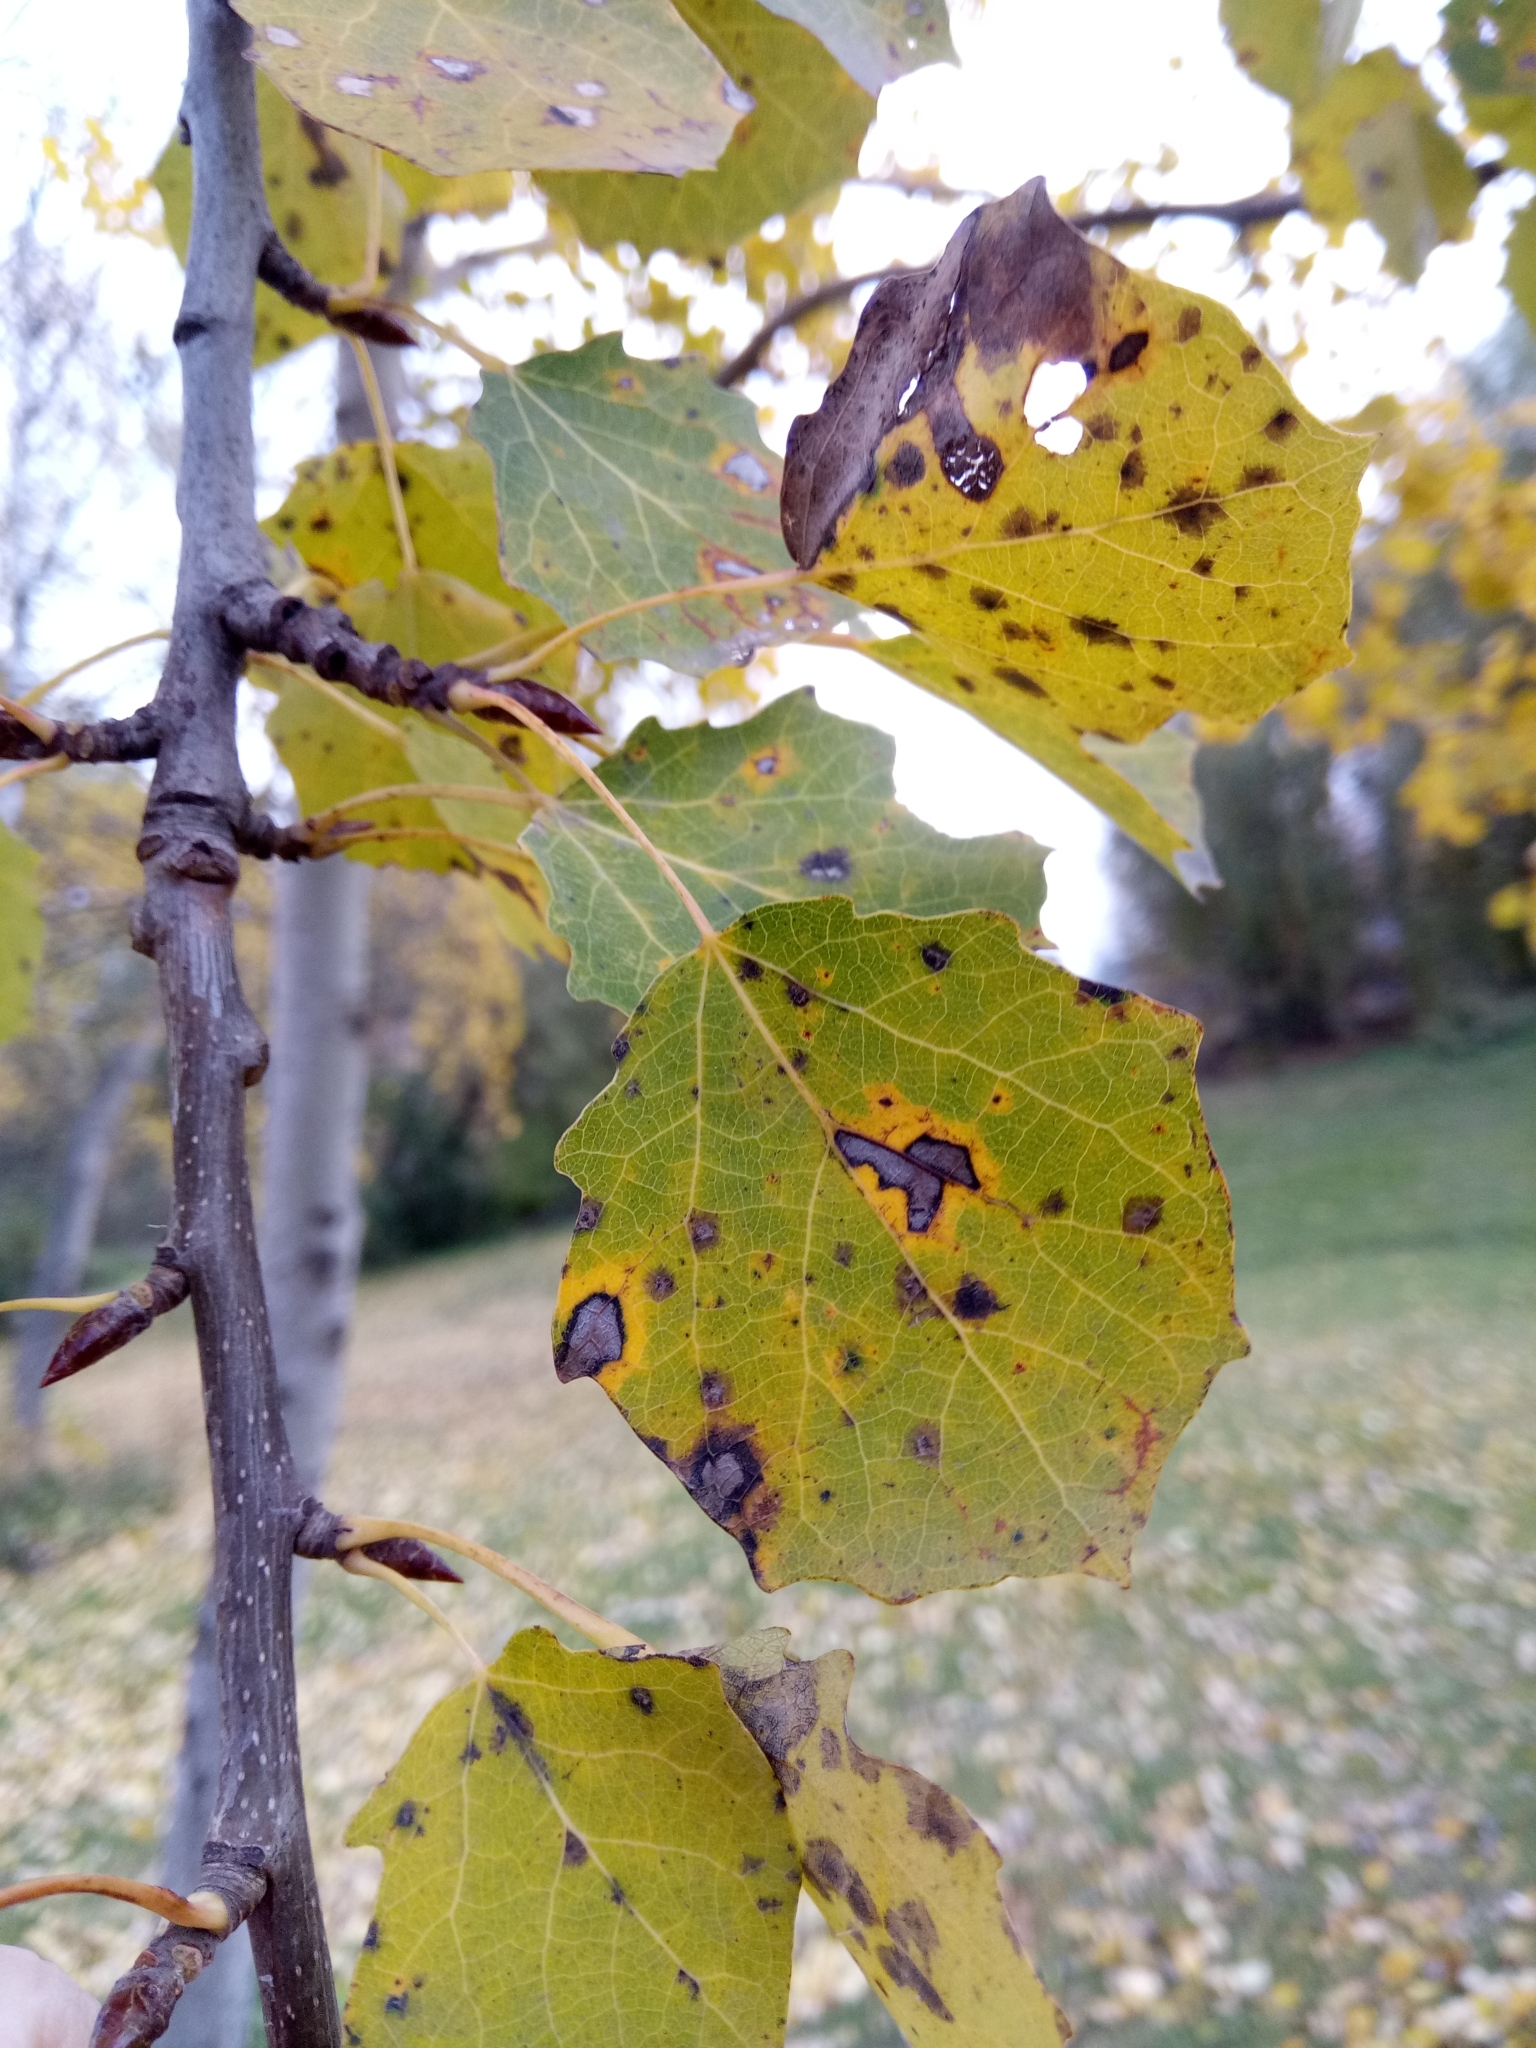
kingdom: Plantae
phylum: Tracheophyta
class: Magnoliopsida
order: Malpighiales
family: Salicaceae
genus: Populus
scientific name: Populus tremula
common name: European aspen
